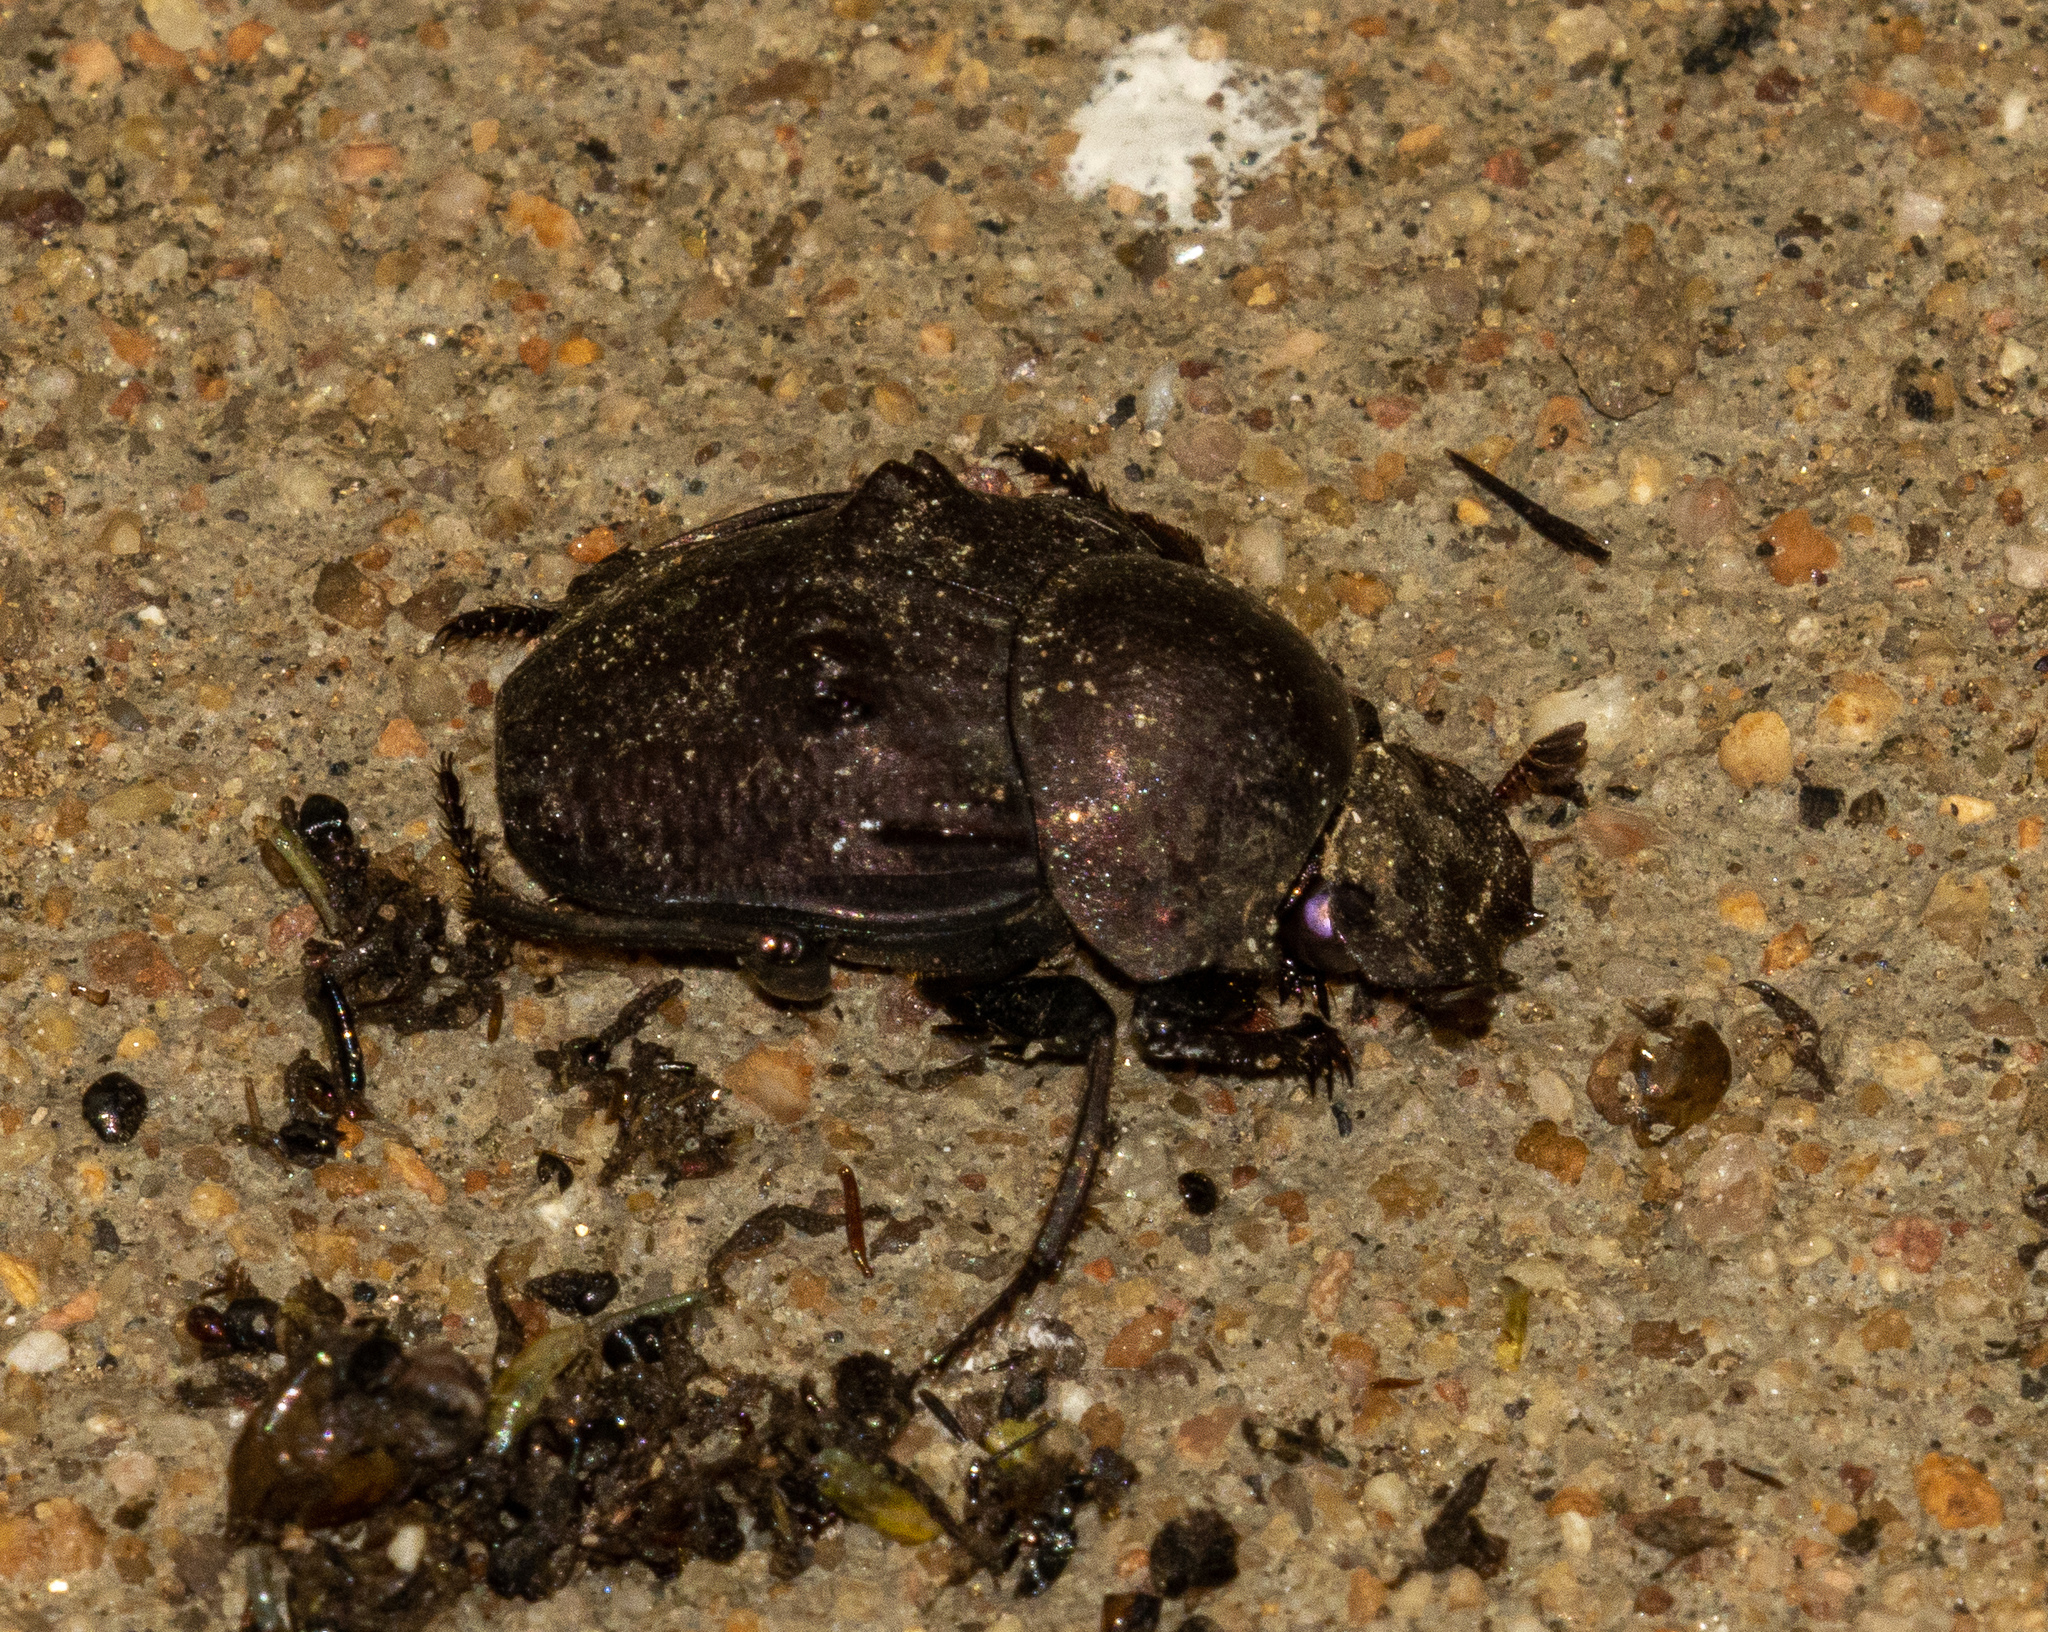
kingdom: Animalia
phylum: Arthropoda
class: Insecta
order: Coleoptera
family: Scarabaeidae
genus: Deltochilum
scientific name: Deltochilum verruciferum
